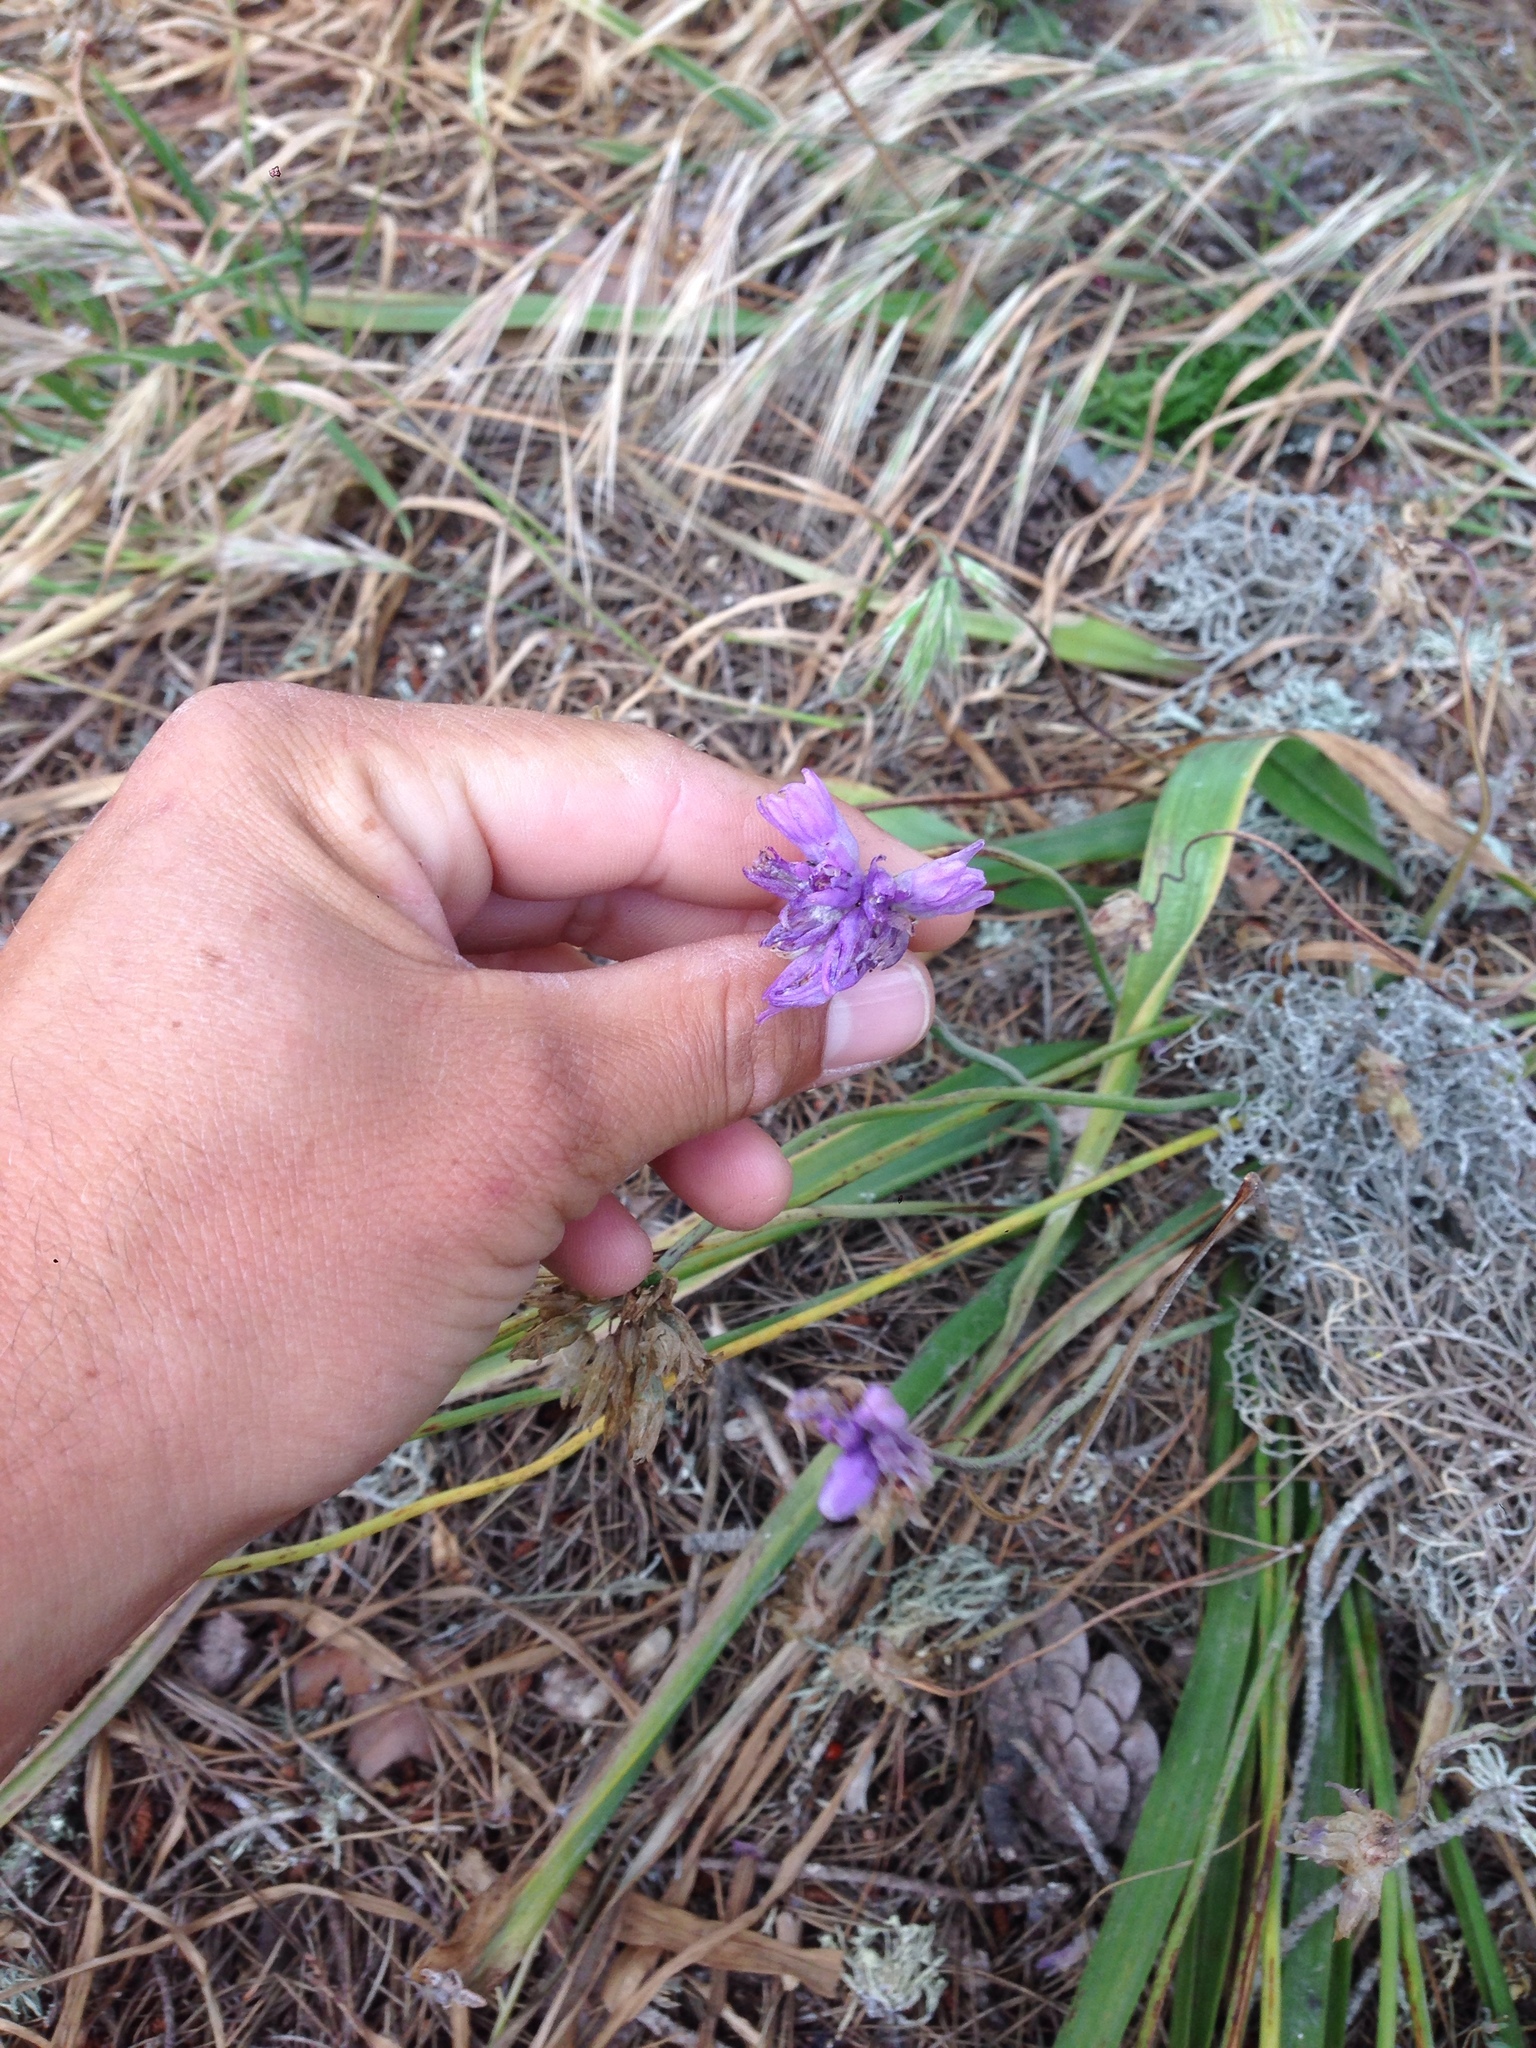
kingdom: Plantae
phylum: Tracheophyta
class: Liliopsida
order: Asparagales
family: Asparagaceae
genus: Dipterostemon
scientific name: Dipterostemon capitatus
